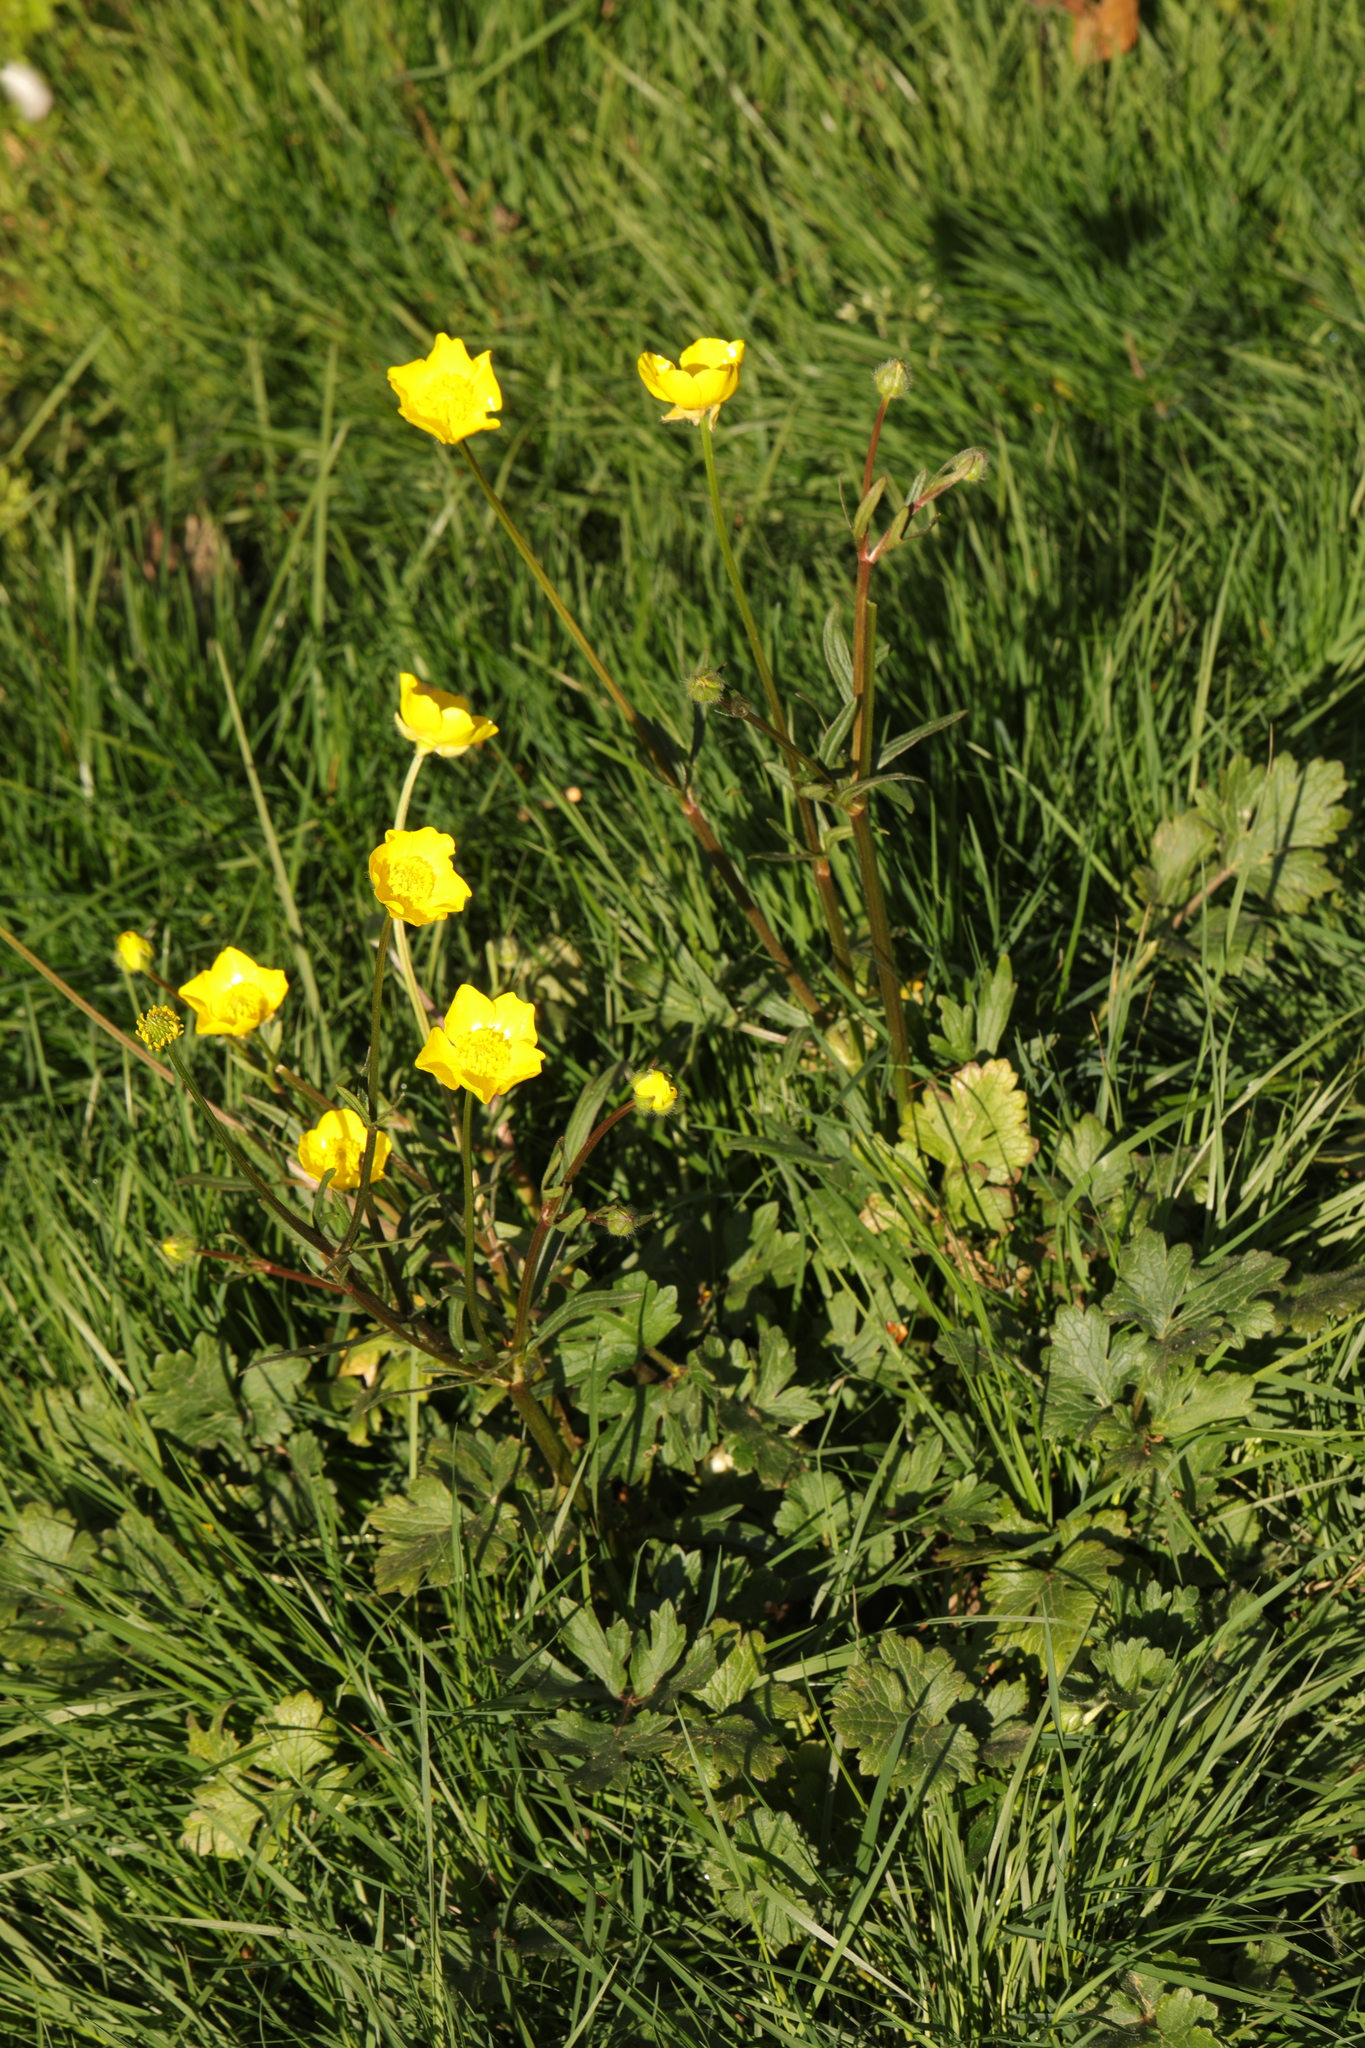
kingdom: Plantae
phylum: Tracheophyta
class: Magnoliopsida
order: Ranunculales
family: Ranunculaceae
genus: Ranunculus
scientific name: Ranunculus repens
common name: Creeping buttercup
